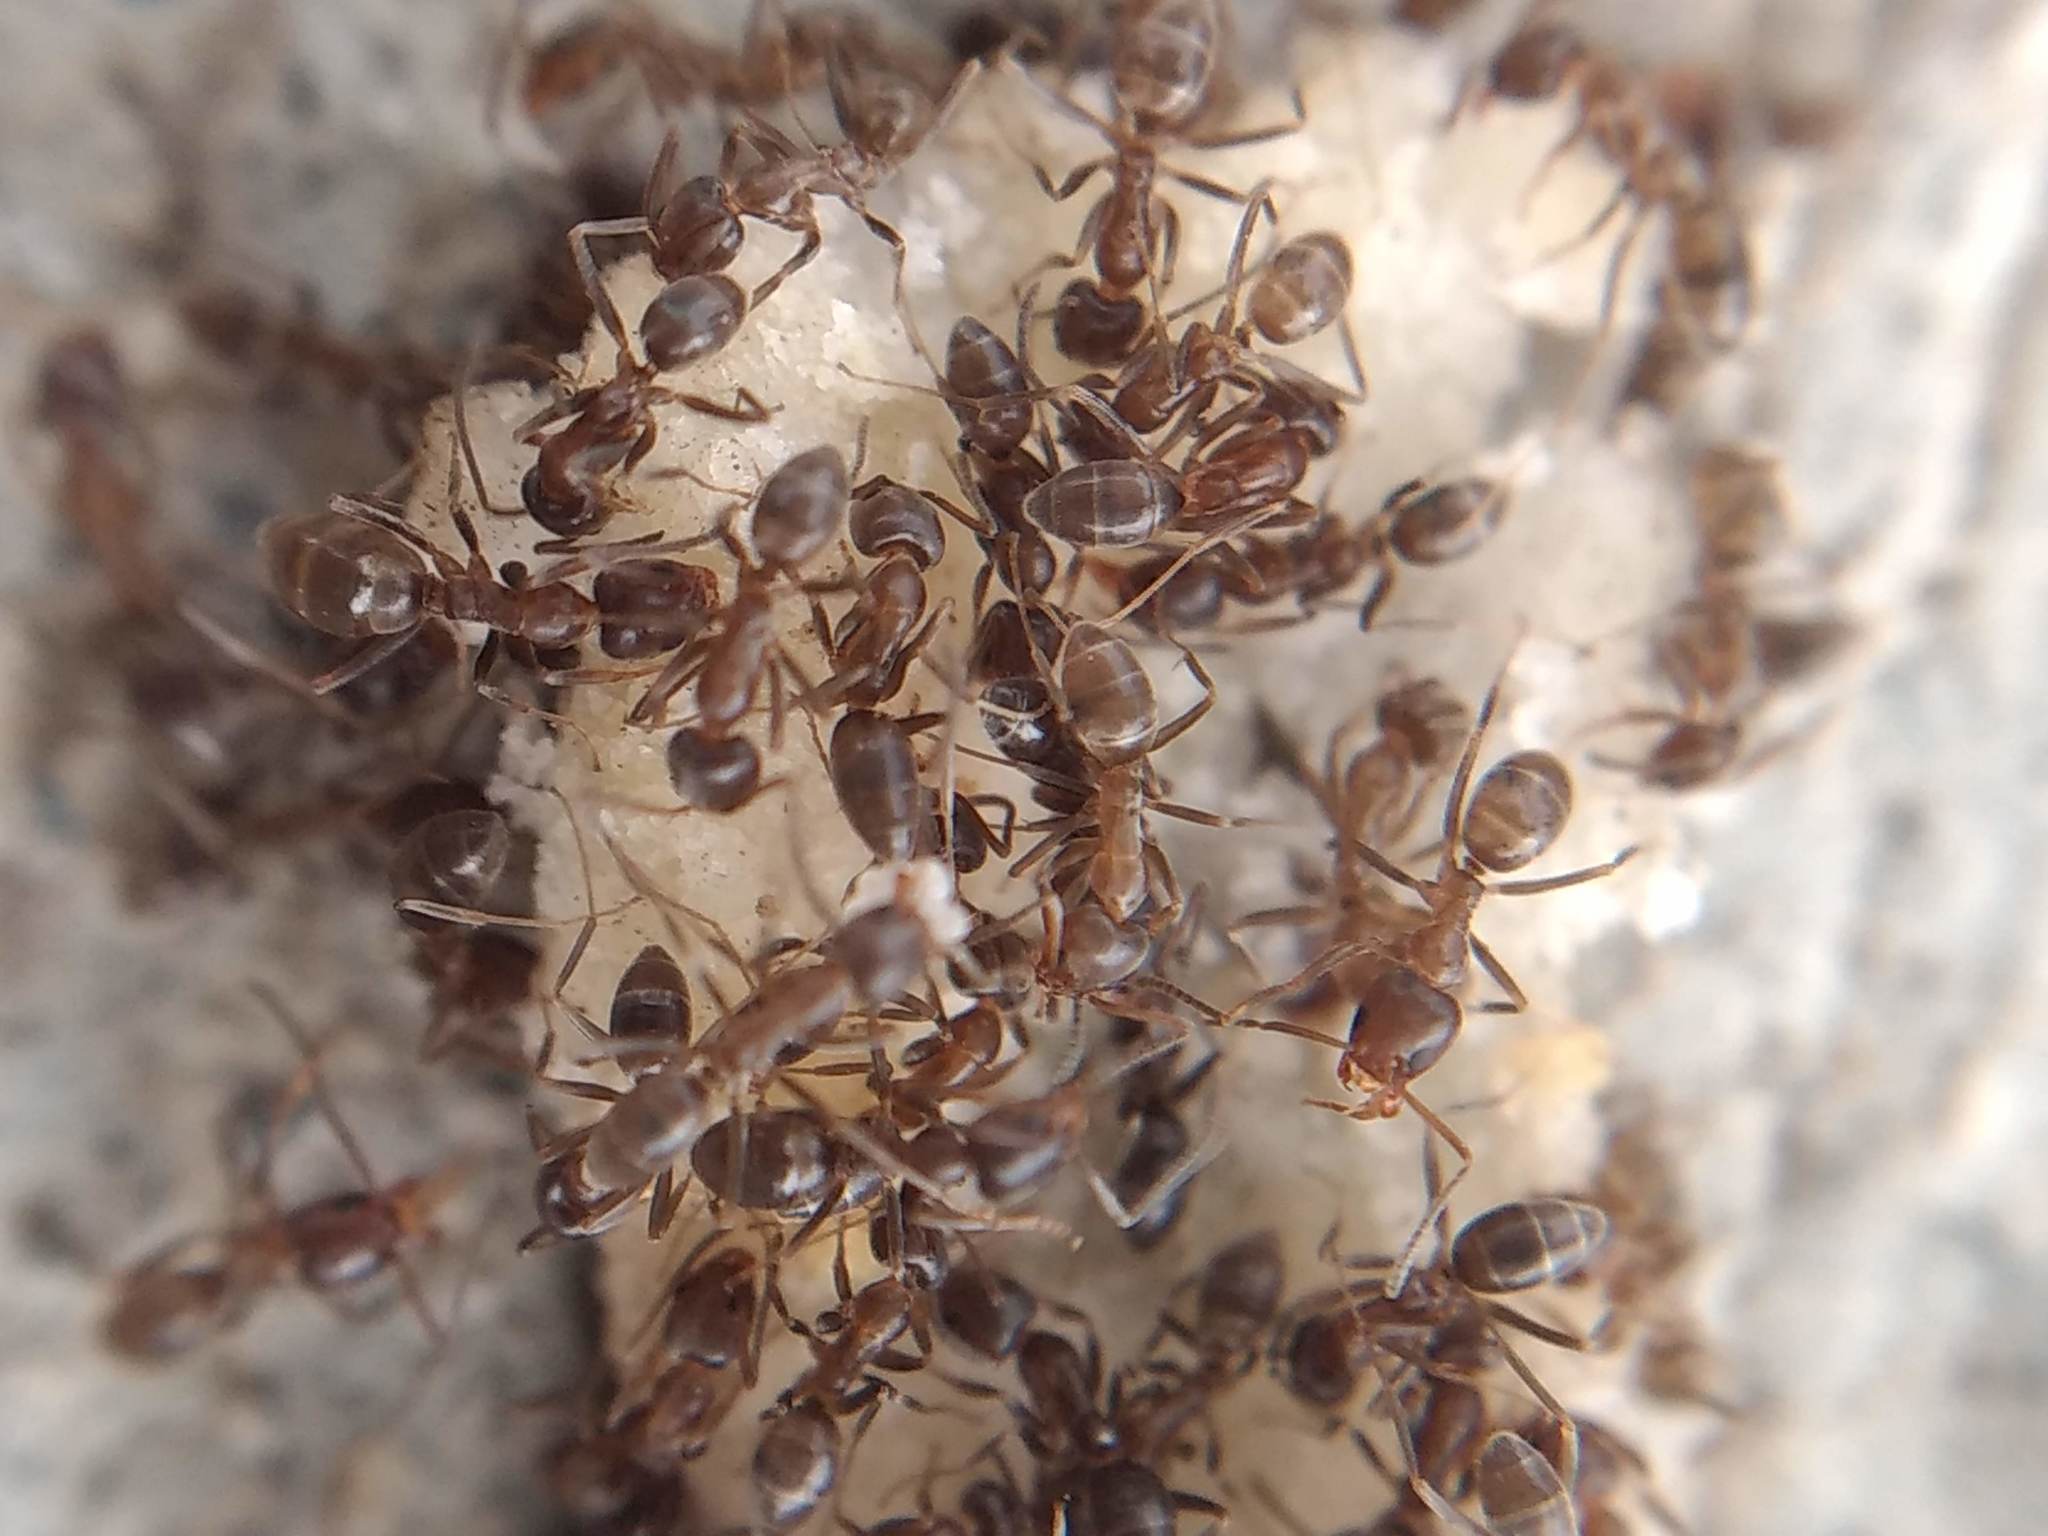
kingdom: Animalia
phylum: Arthropoda
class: Insecta
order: Hymenoptera
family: Formicidae
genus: Linepithema
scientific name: Linepithema humile
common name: Argentine ant
